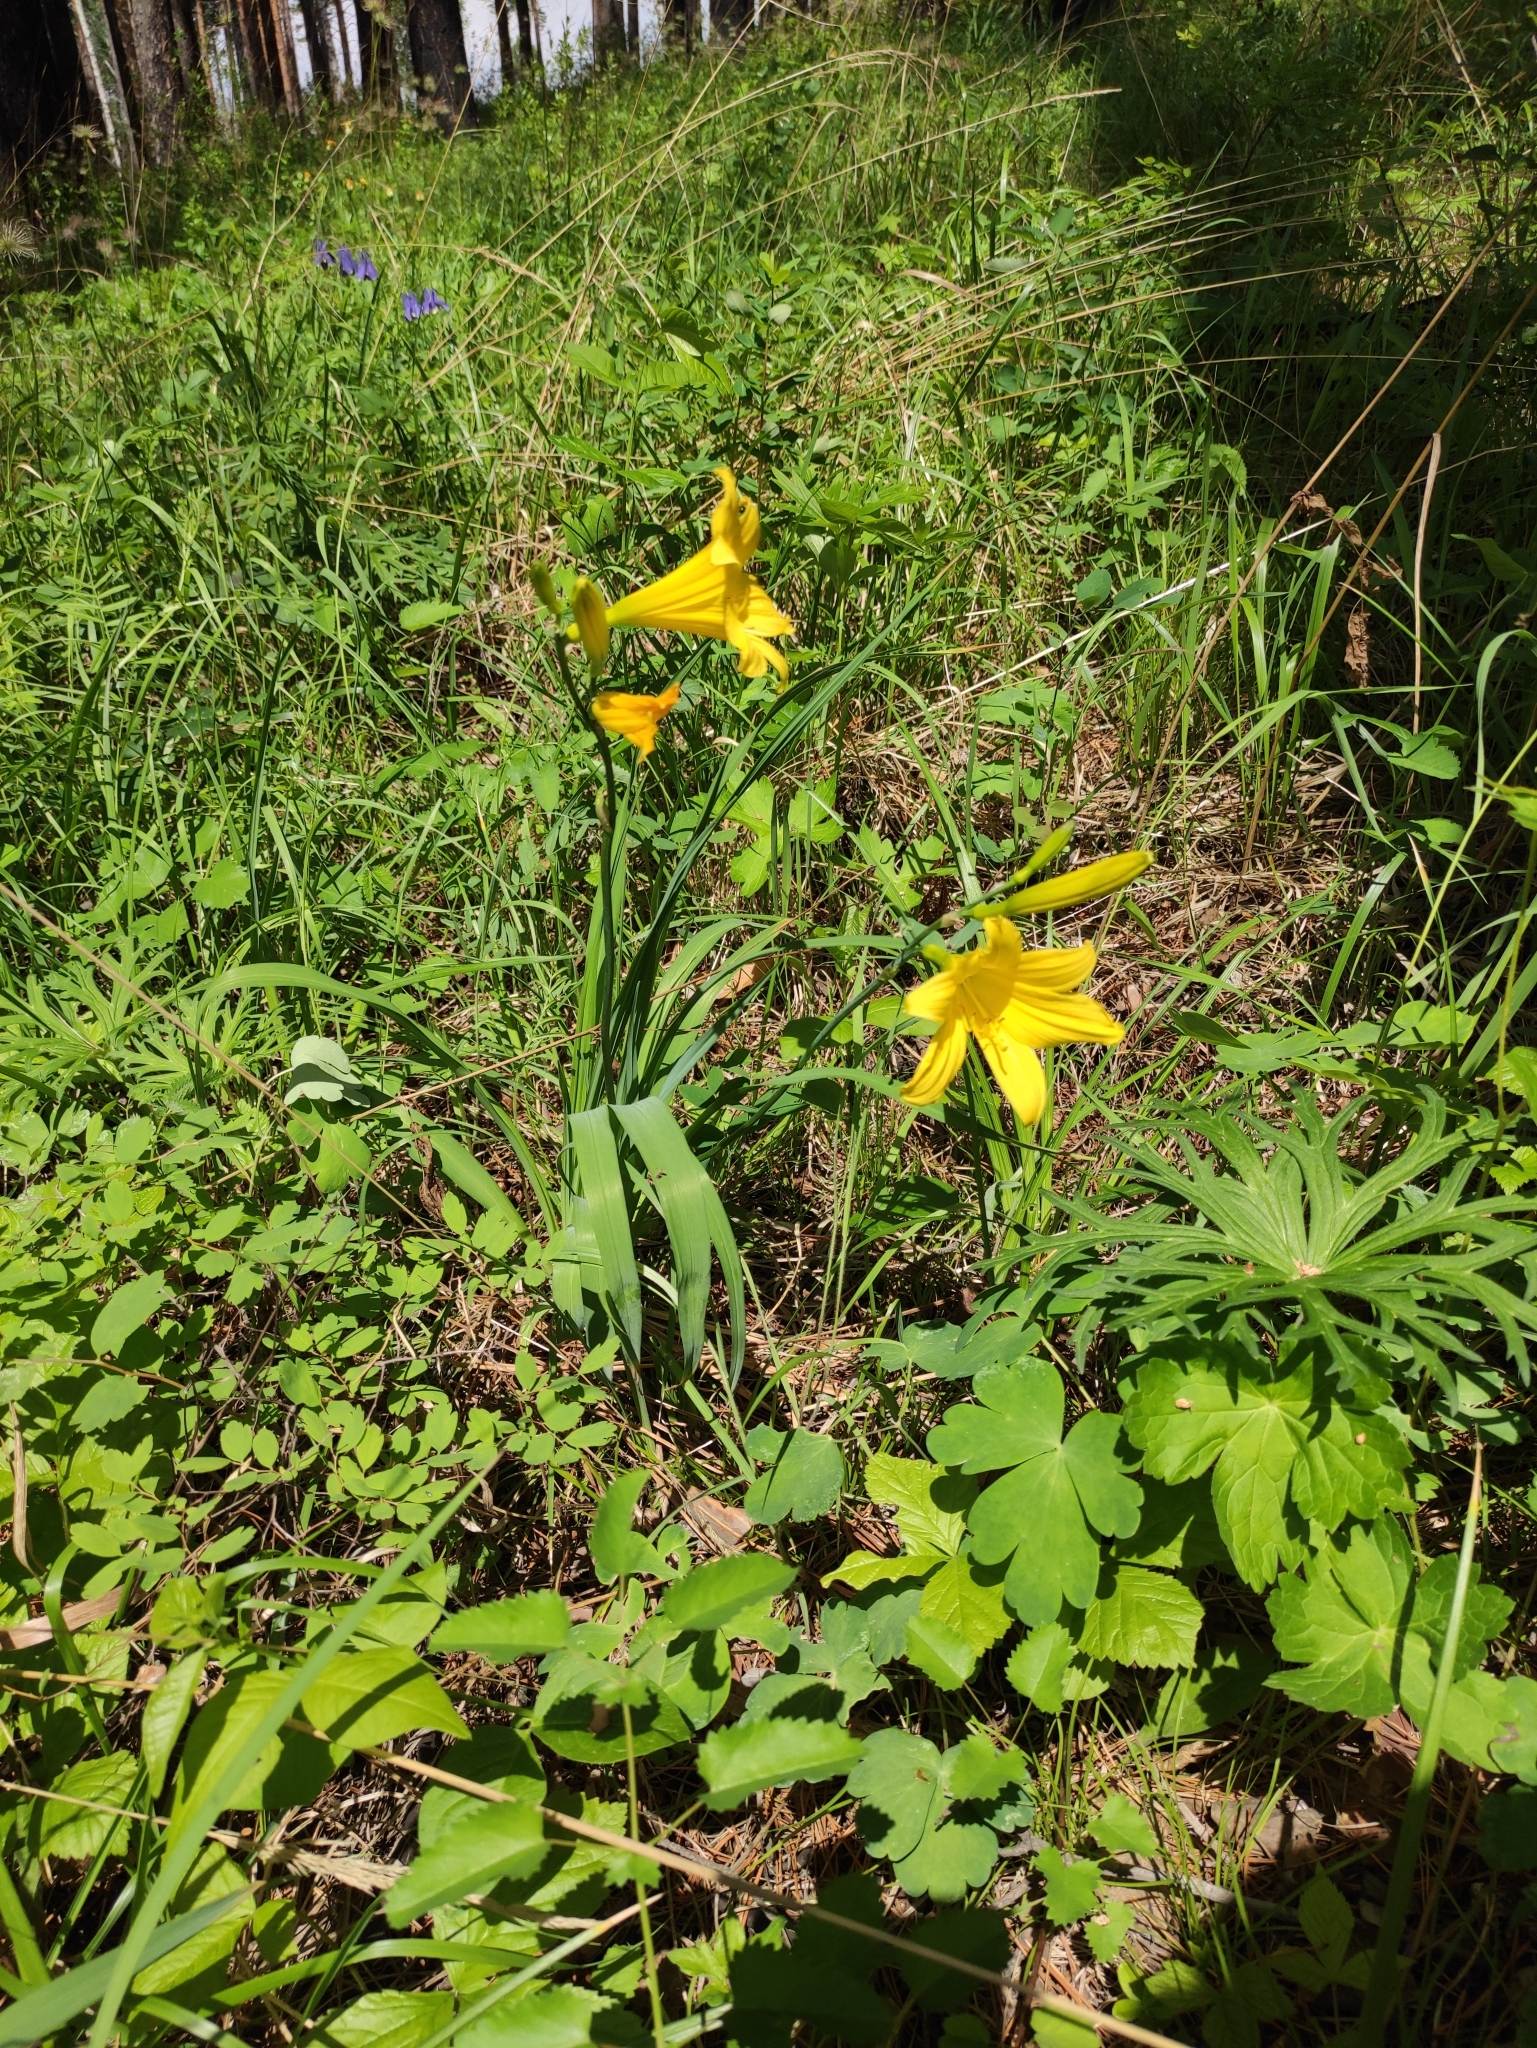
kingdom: Plantae
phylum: Tracheophyta
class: Liliopsida
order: Asparagales
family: Asphodelaceae
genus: Hemerocallis
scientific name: Hemerocallis minor
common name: Small daylily
